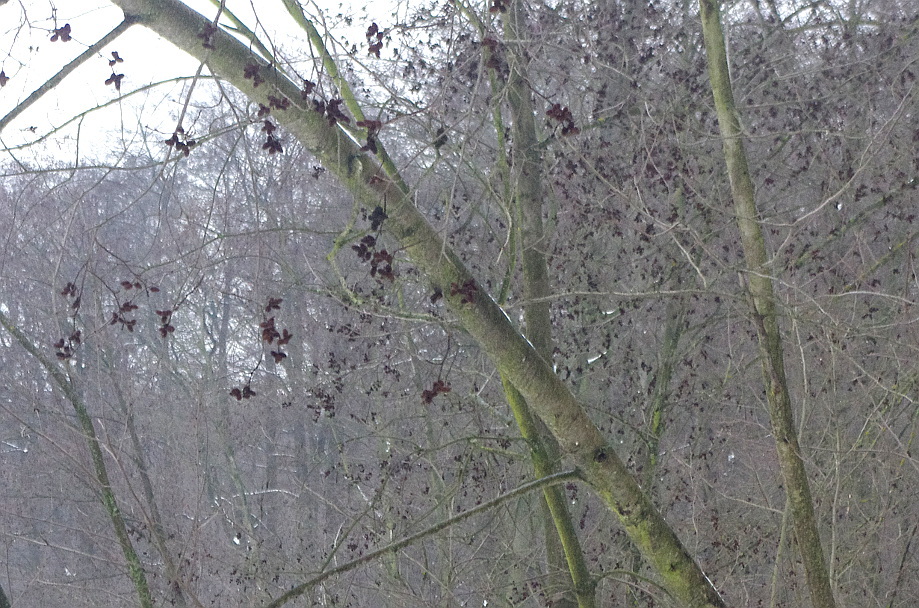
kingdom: Plantae
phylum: Tracheophyta
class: Magnoliopsida
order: Fagales
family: Betulaceae
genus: Alnus
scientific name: Alnus incana
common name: Grey alder
